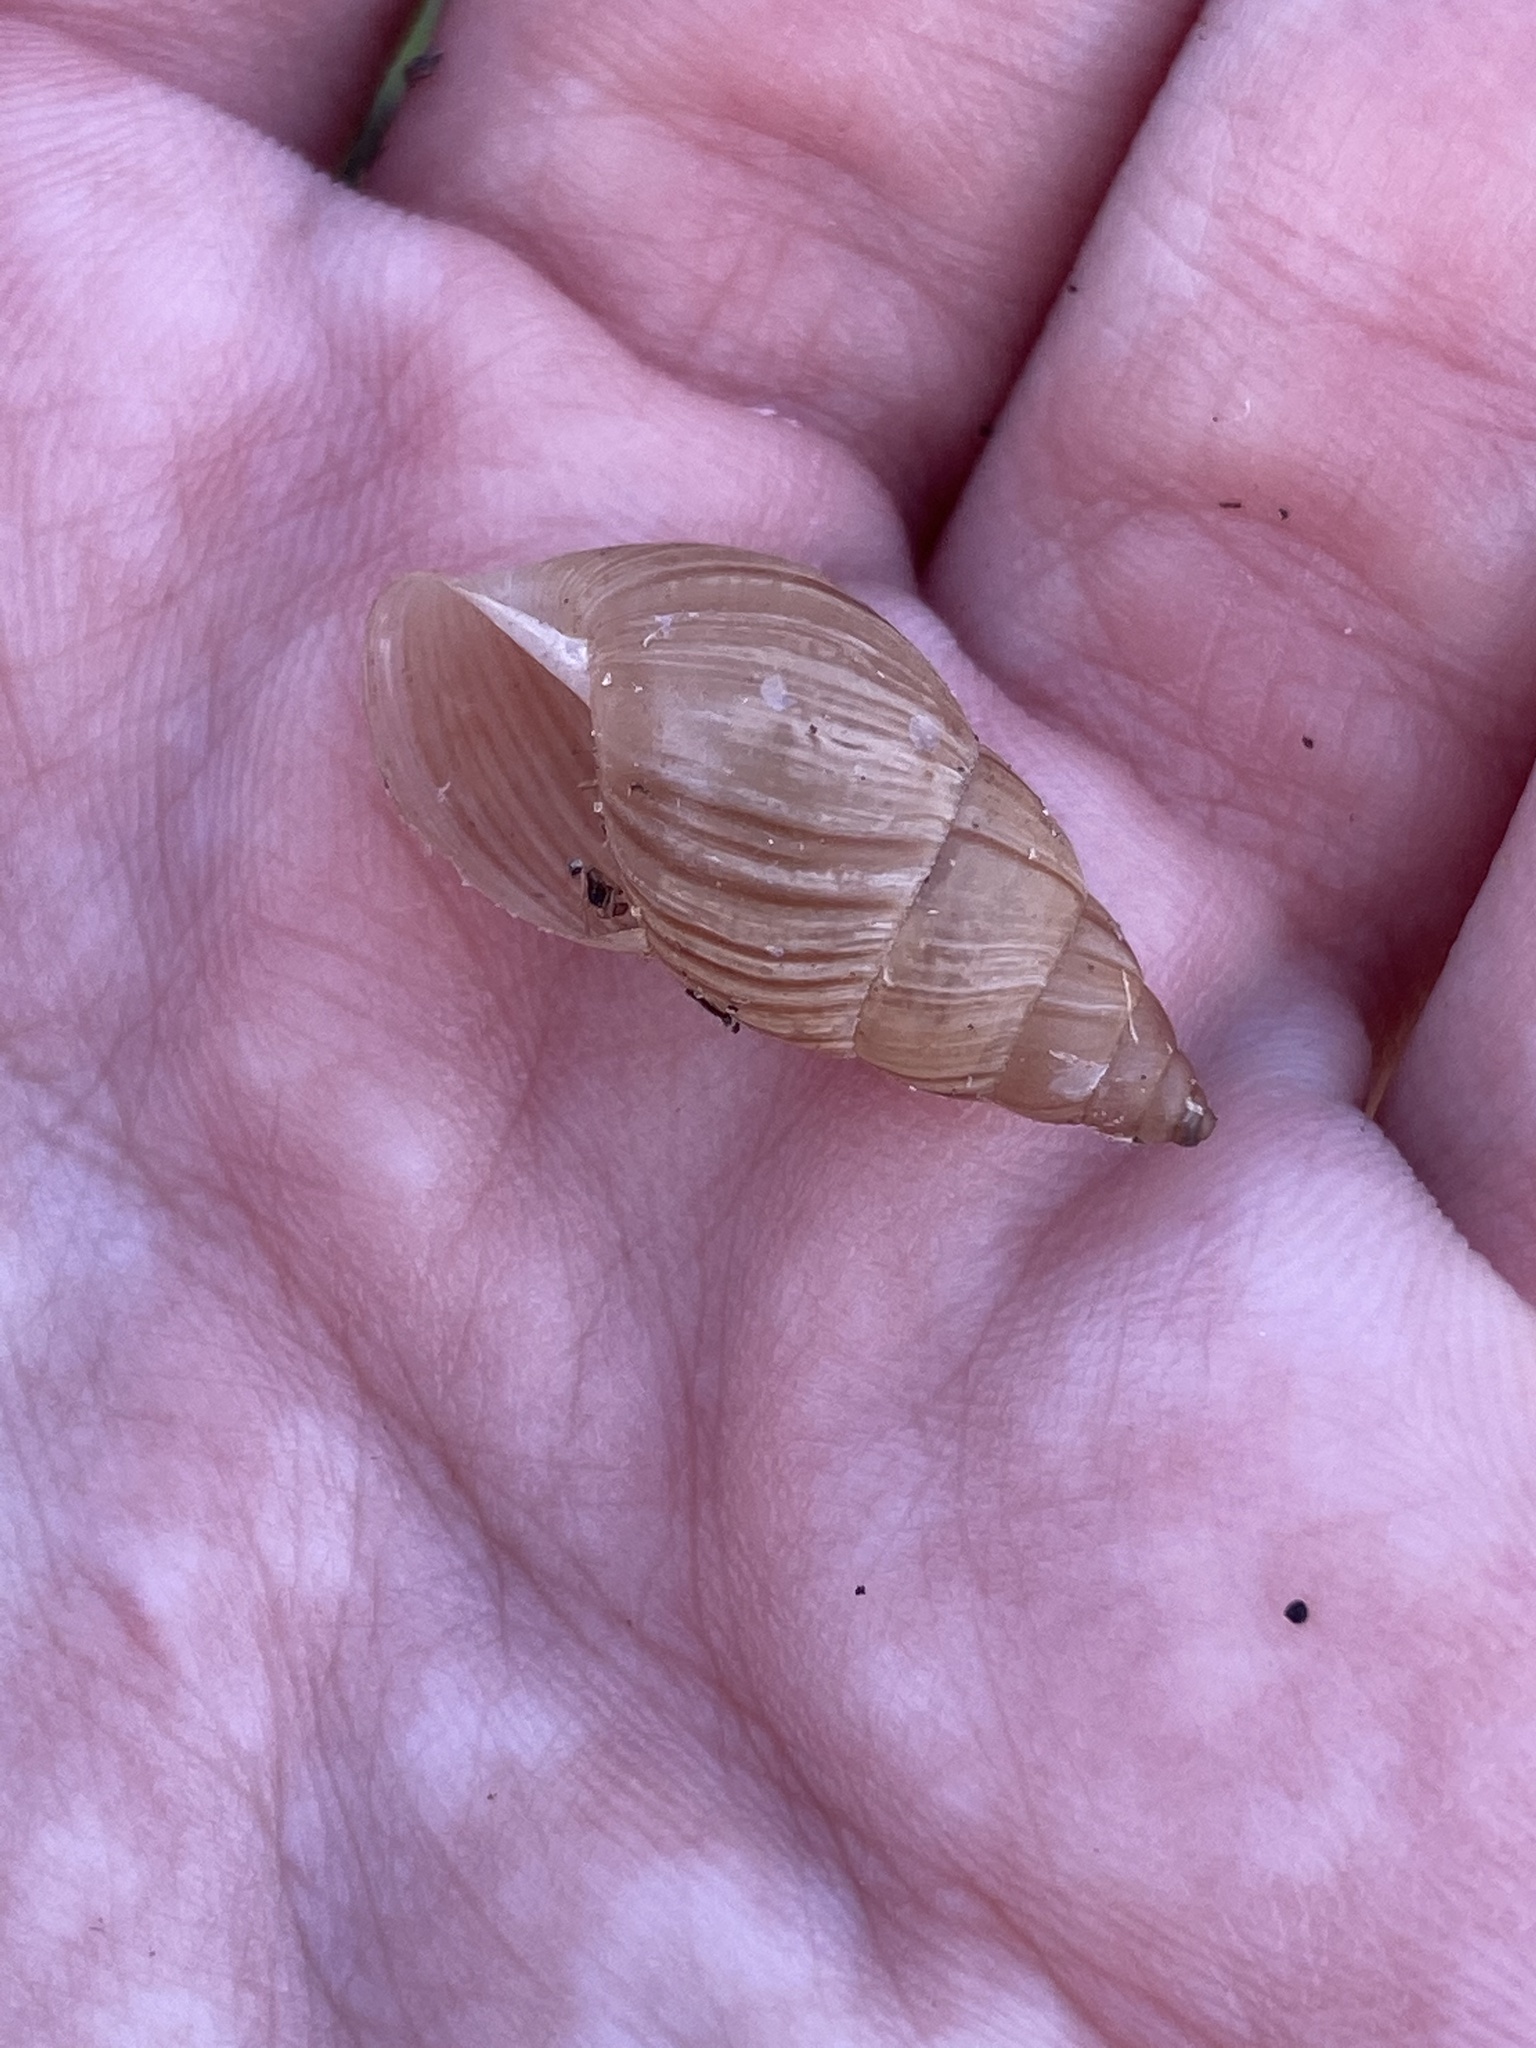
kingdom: Animalia
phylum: Mollusca
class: Gastropoda
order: Stylommatophora
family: Bulimulidae
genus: Bulimulus
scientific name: Bulimulus bonariensis
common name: Snail
